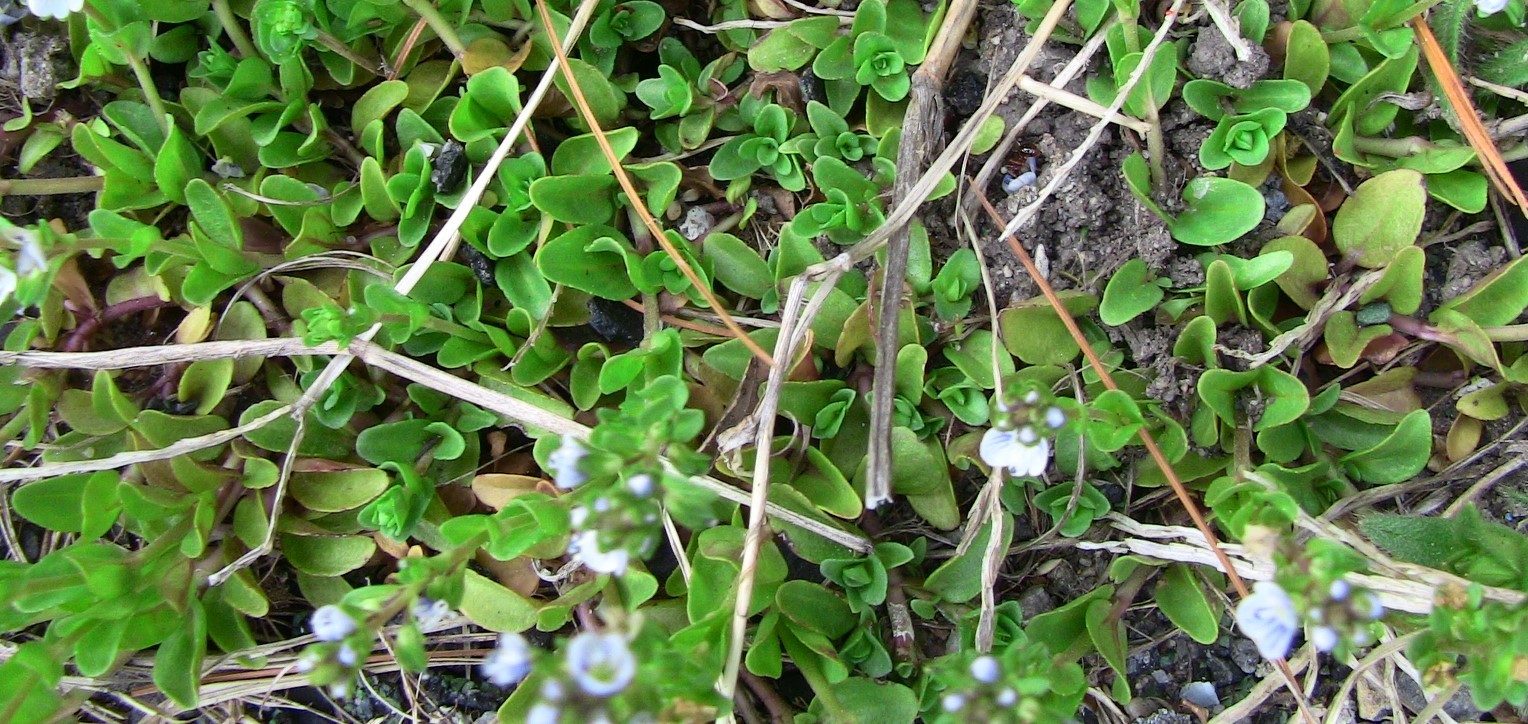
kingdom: Plantae
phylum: Tracheophyta
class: Magnoliopsida
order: Lamiales
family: Plantaginaceae
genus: Veronica
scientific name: Veronica serpyllifolia
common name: Thyme-leaved speedwell
